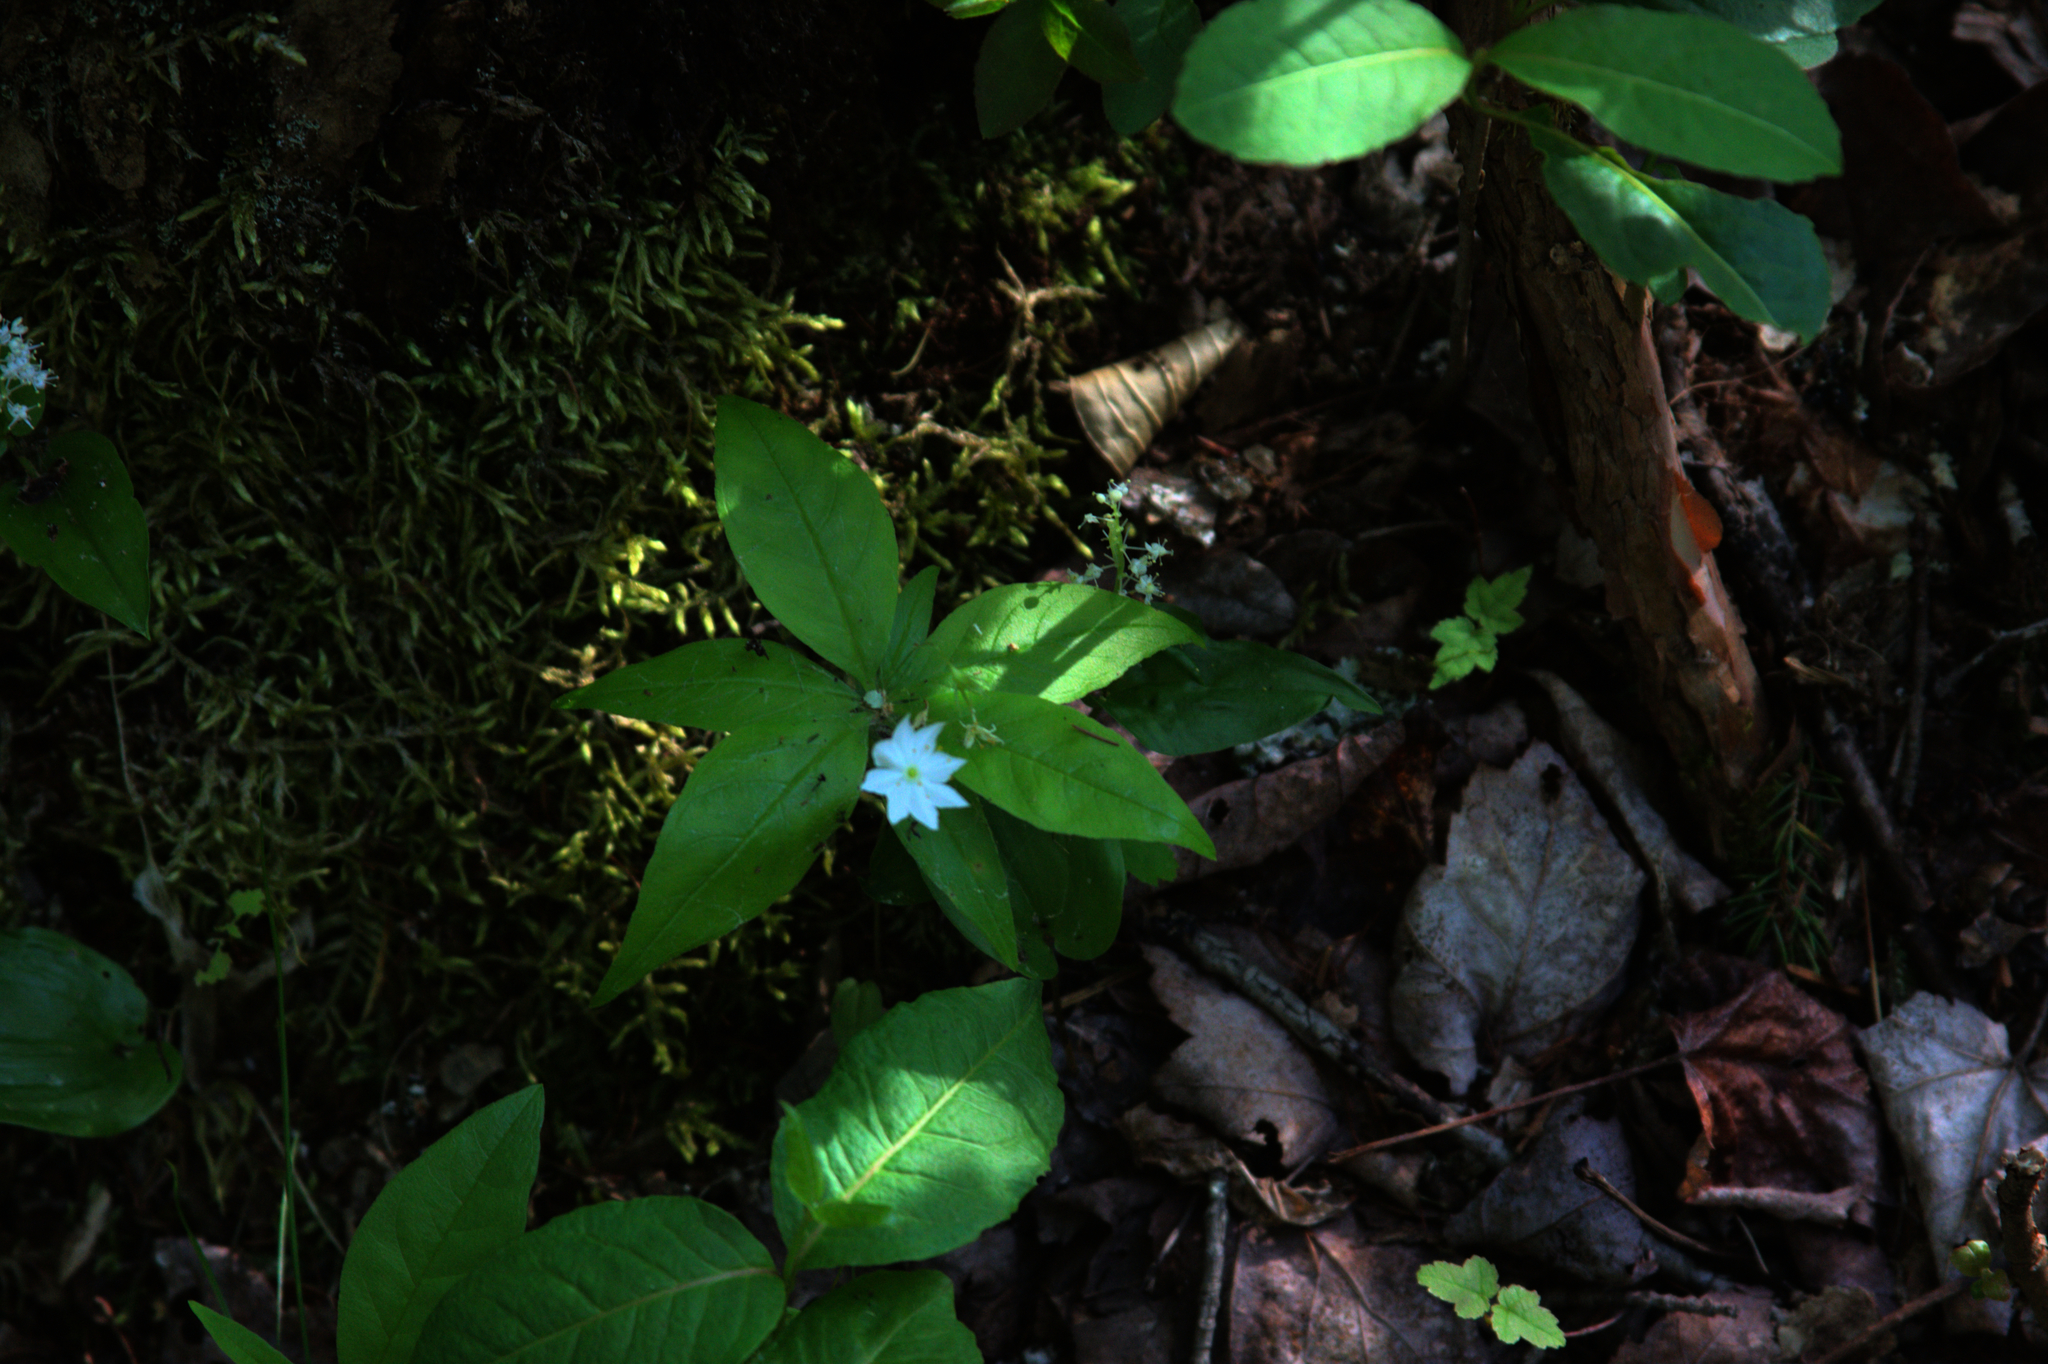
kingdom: Plantae
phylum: Tracheophyta
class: Magnoliopsida
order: Ericales
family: Primulaceae
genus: Lysimachia
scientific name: Lysimachia borealis
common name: American starflower
